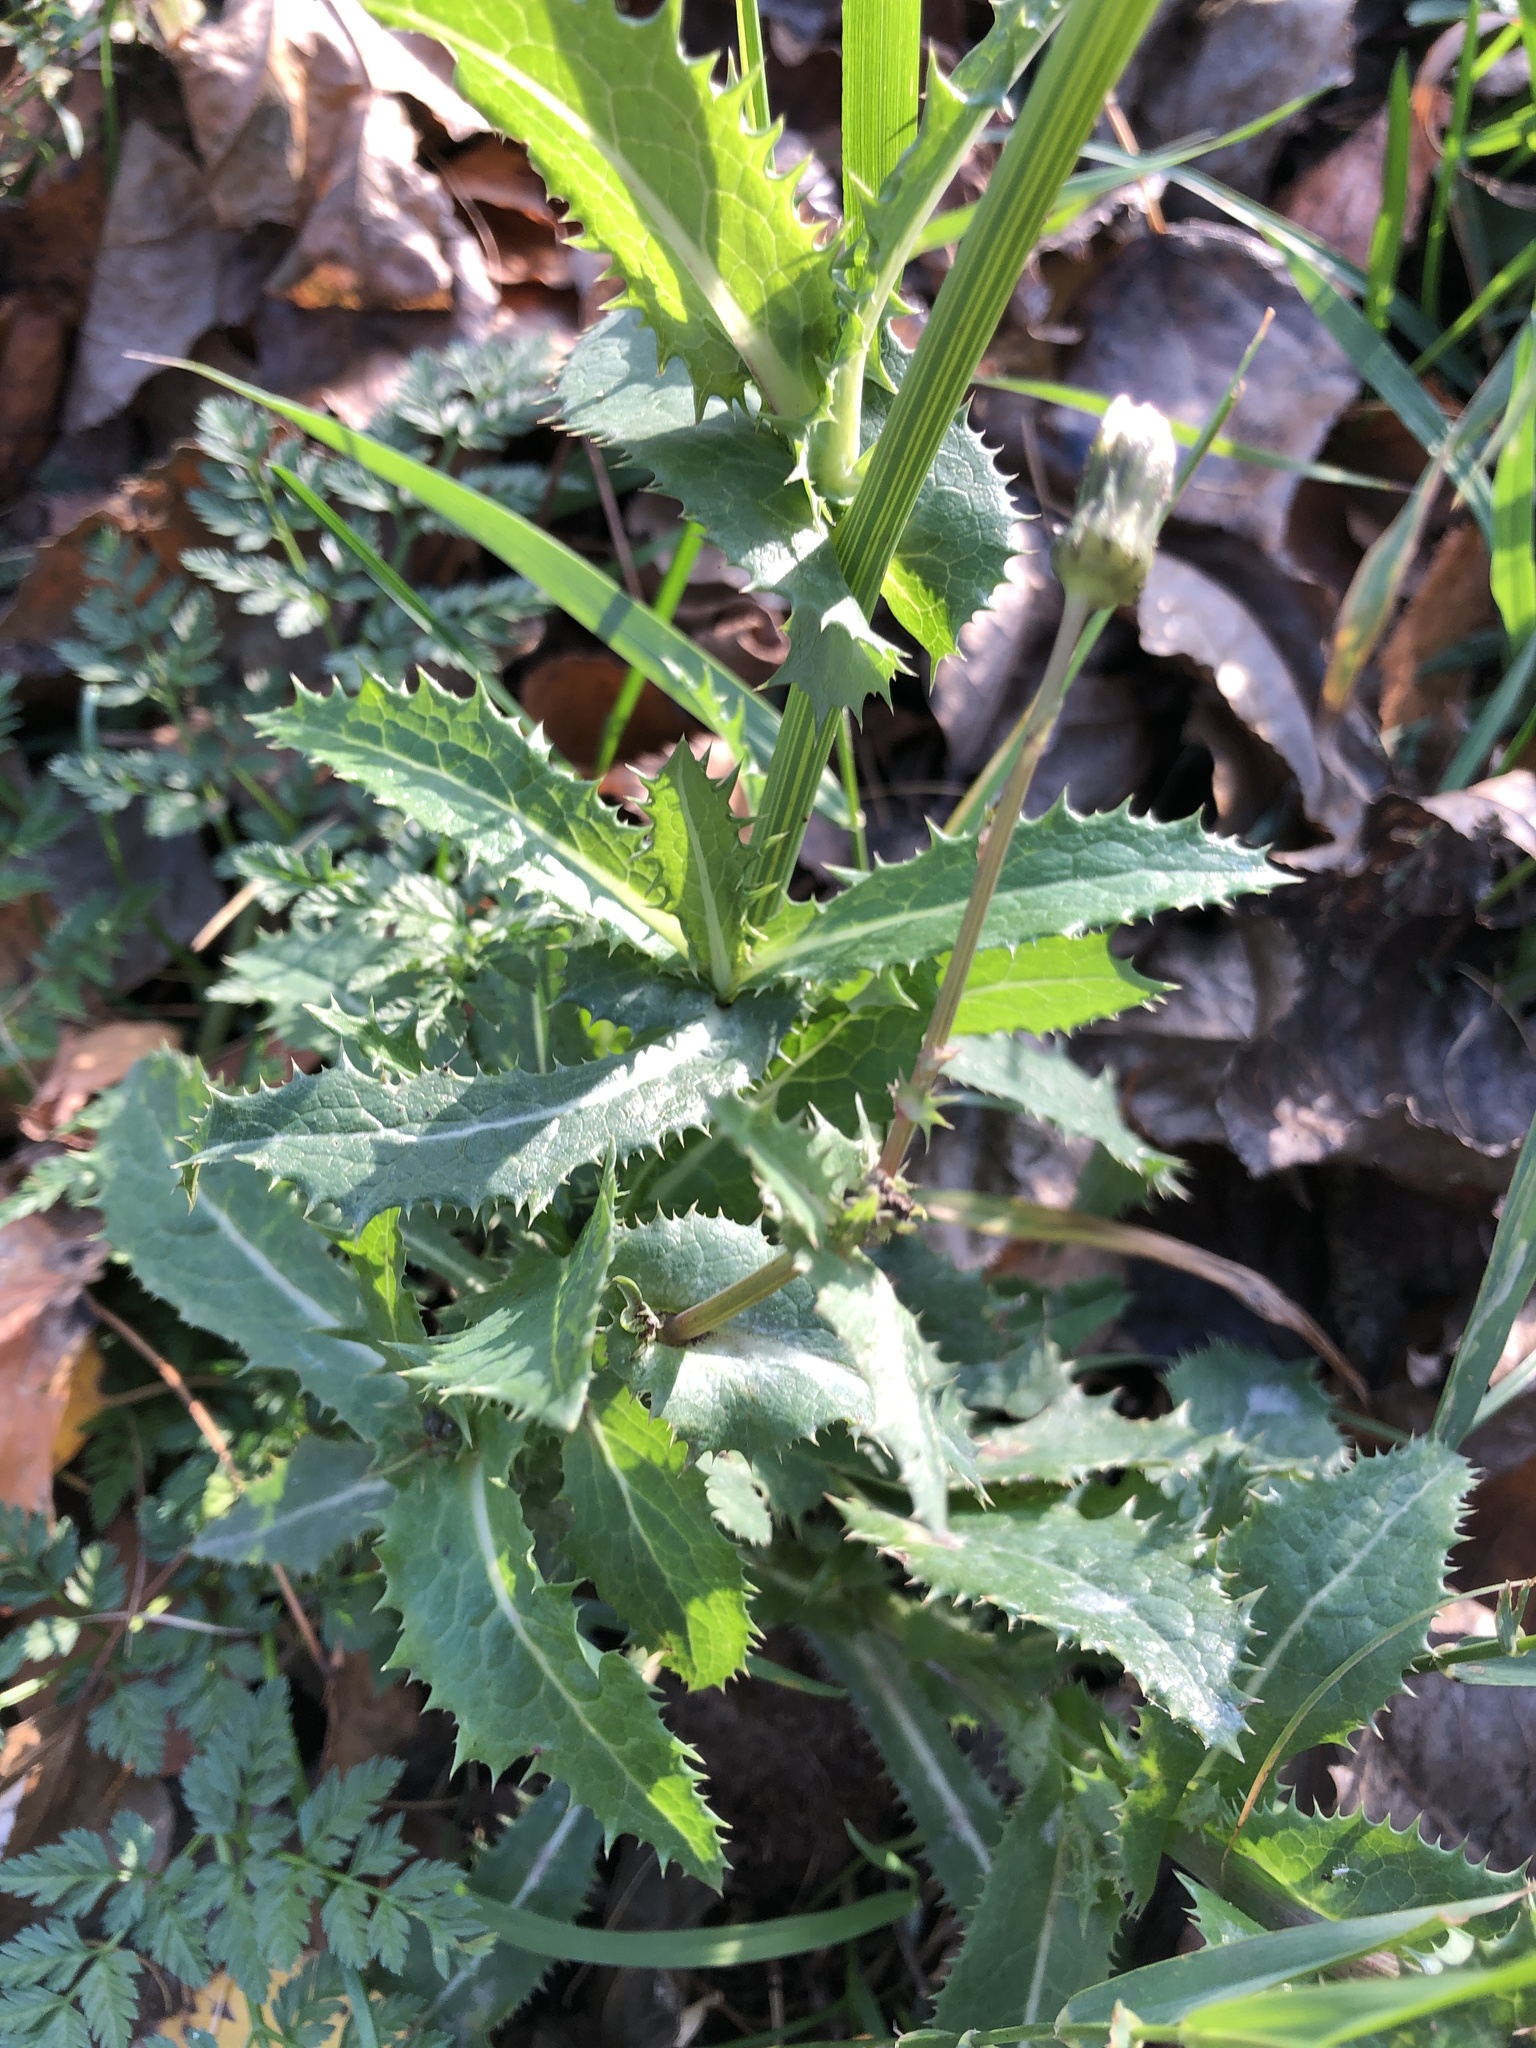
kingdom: Plantae
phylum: Tracheophyta
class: Magnoliopsida
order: Asterales
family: Asteraceae
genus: Sonchus
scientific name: Sonchus asper
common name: Prickly sow-thistle
